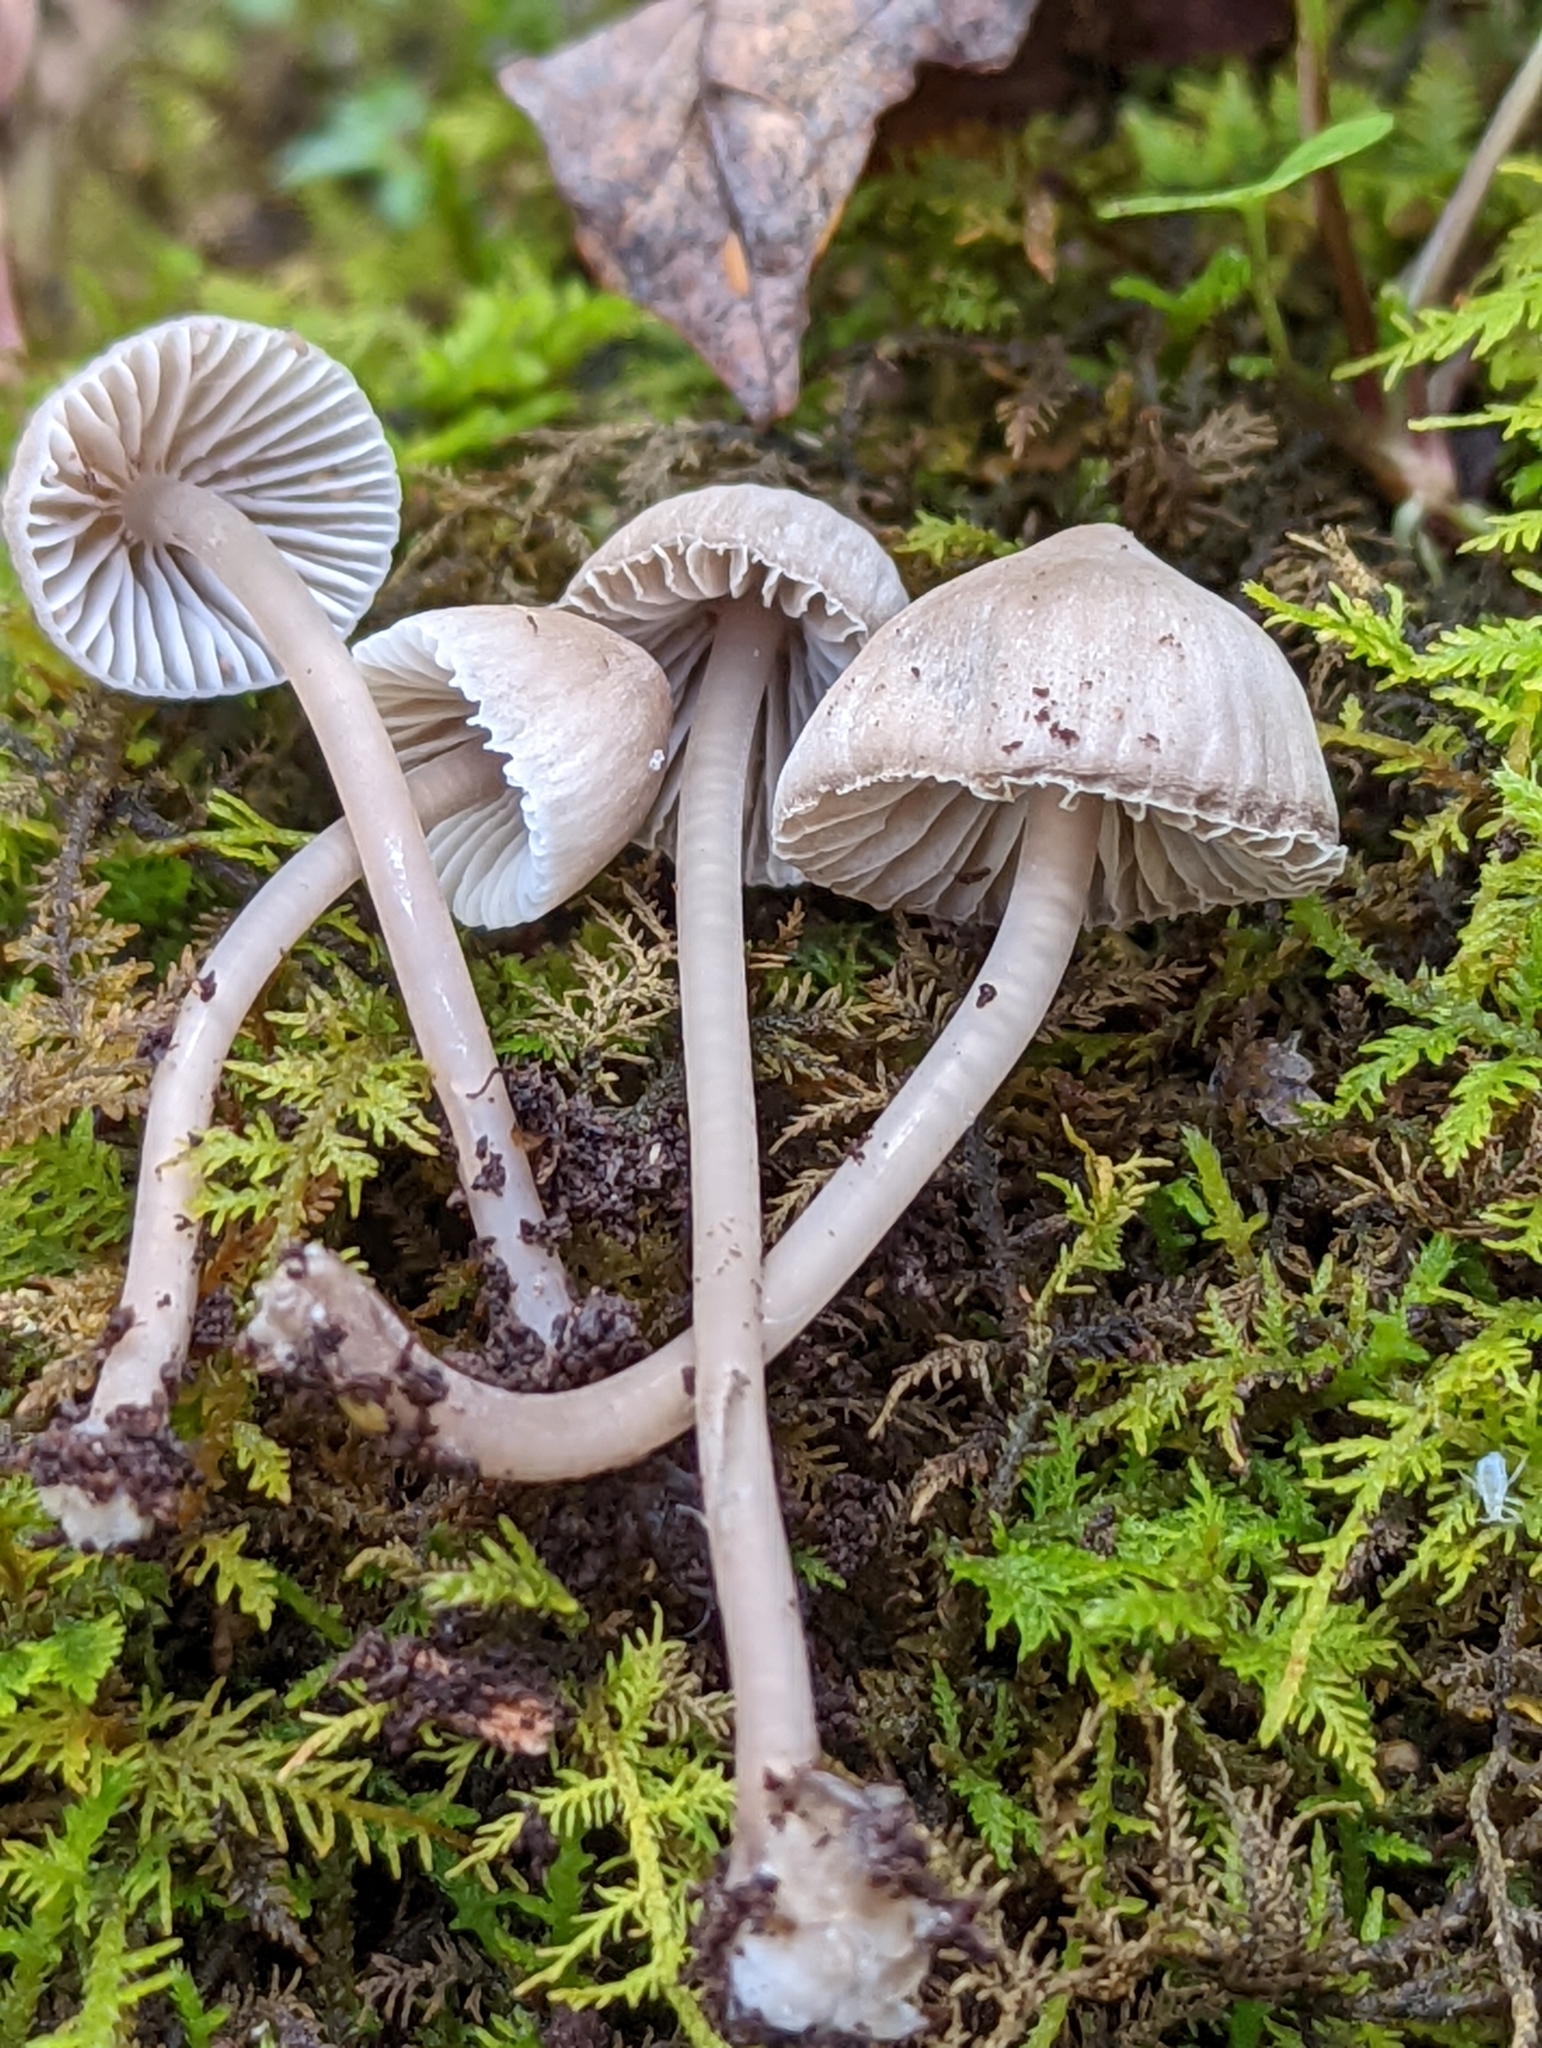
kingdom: Fungi
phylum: Basidiomycota
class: Agaricomycetes
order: Agaricales
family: Mycenaceae
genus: Mycena
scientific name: Mycena aetites
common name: Drab bonnet
